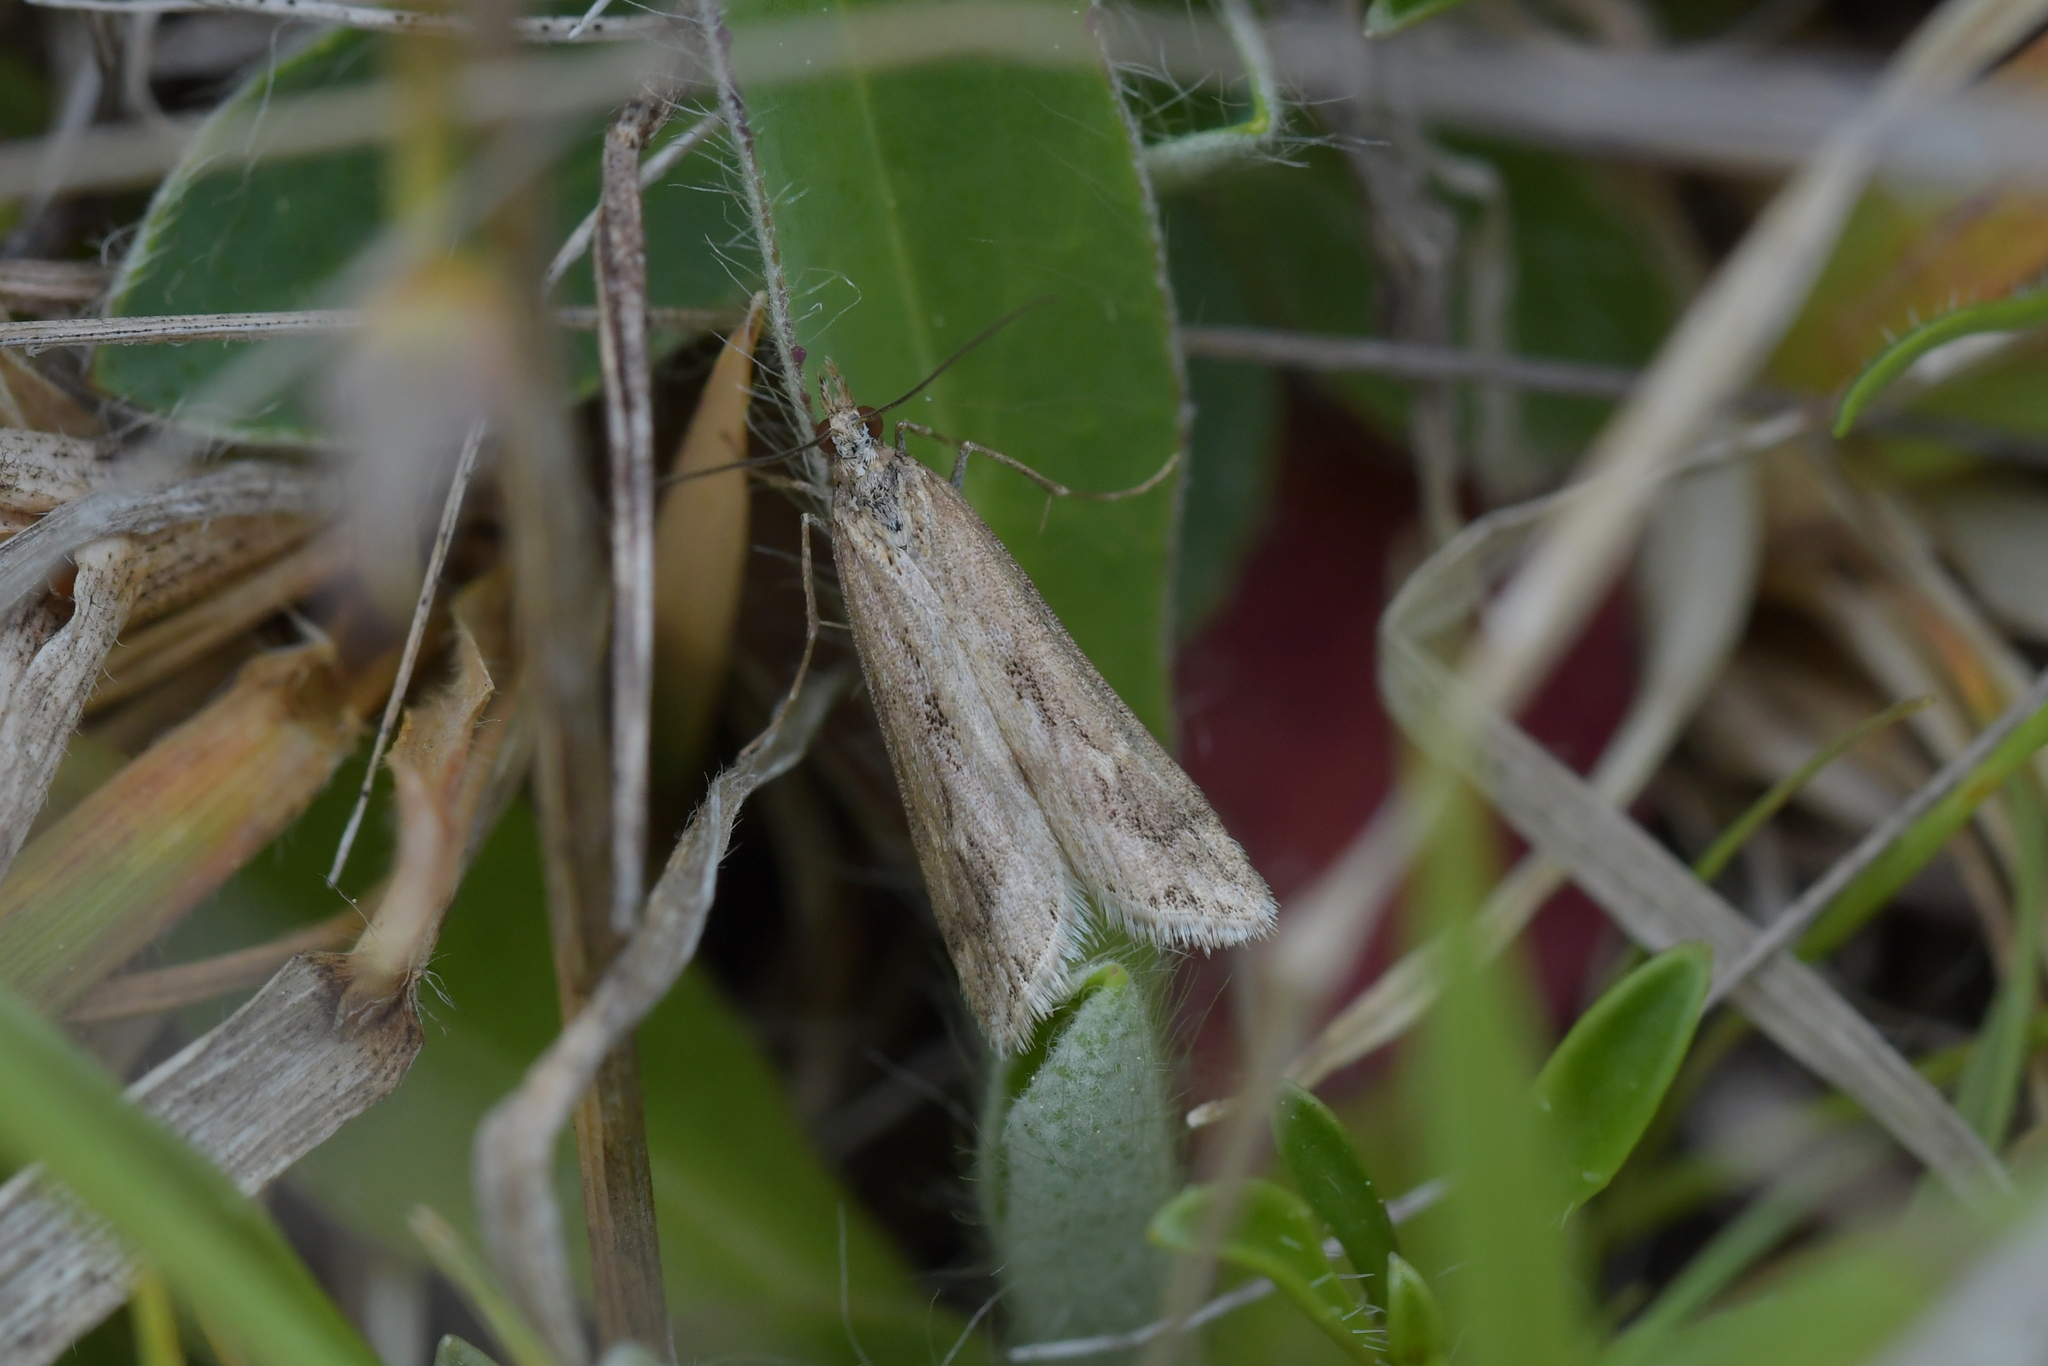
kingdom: Animalia
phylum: Arthropoda
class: Insecta
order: Lepidoptera
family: Crambidae
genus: Scoparia
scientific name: Scoparia exilis
